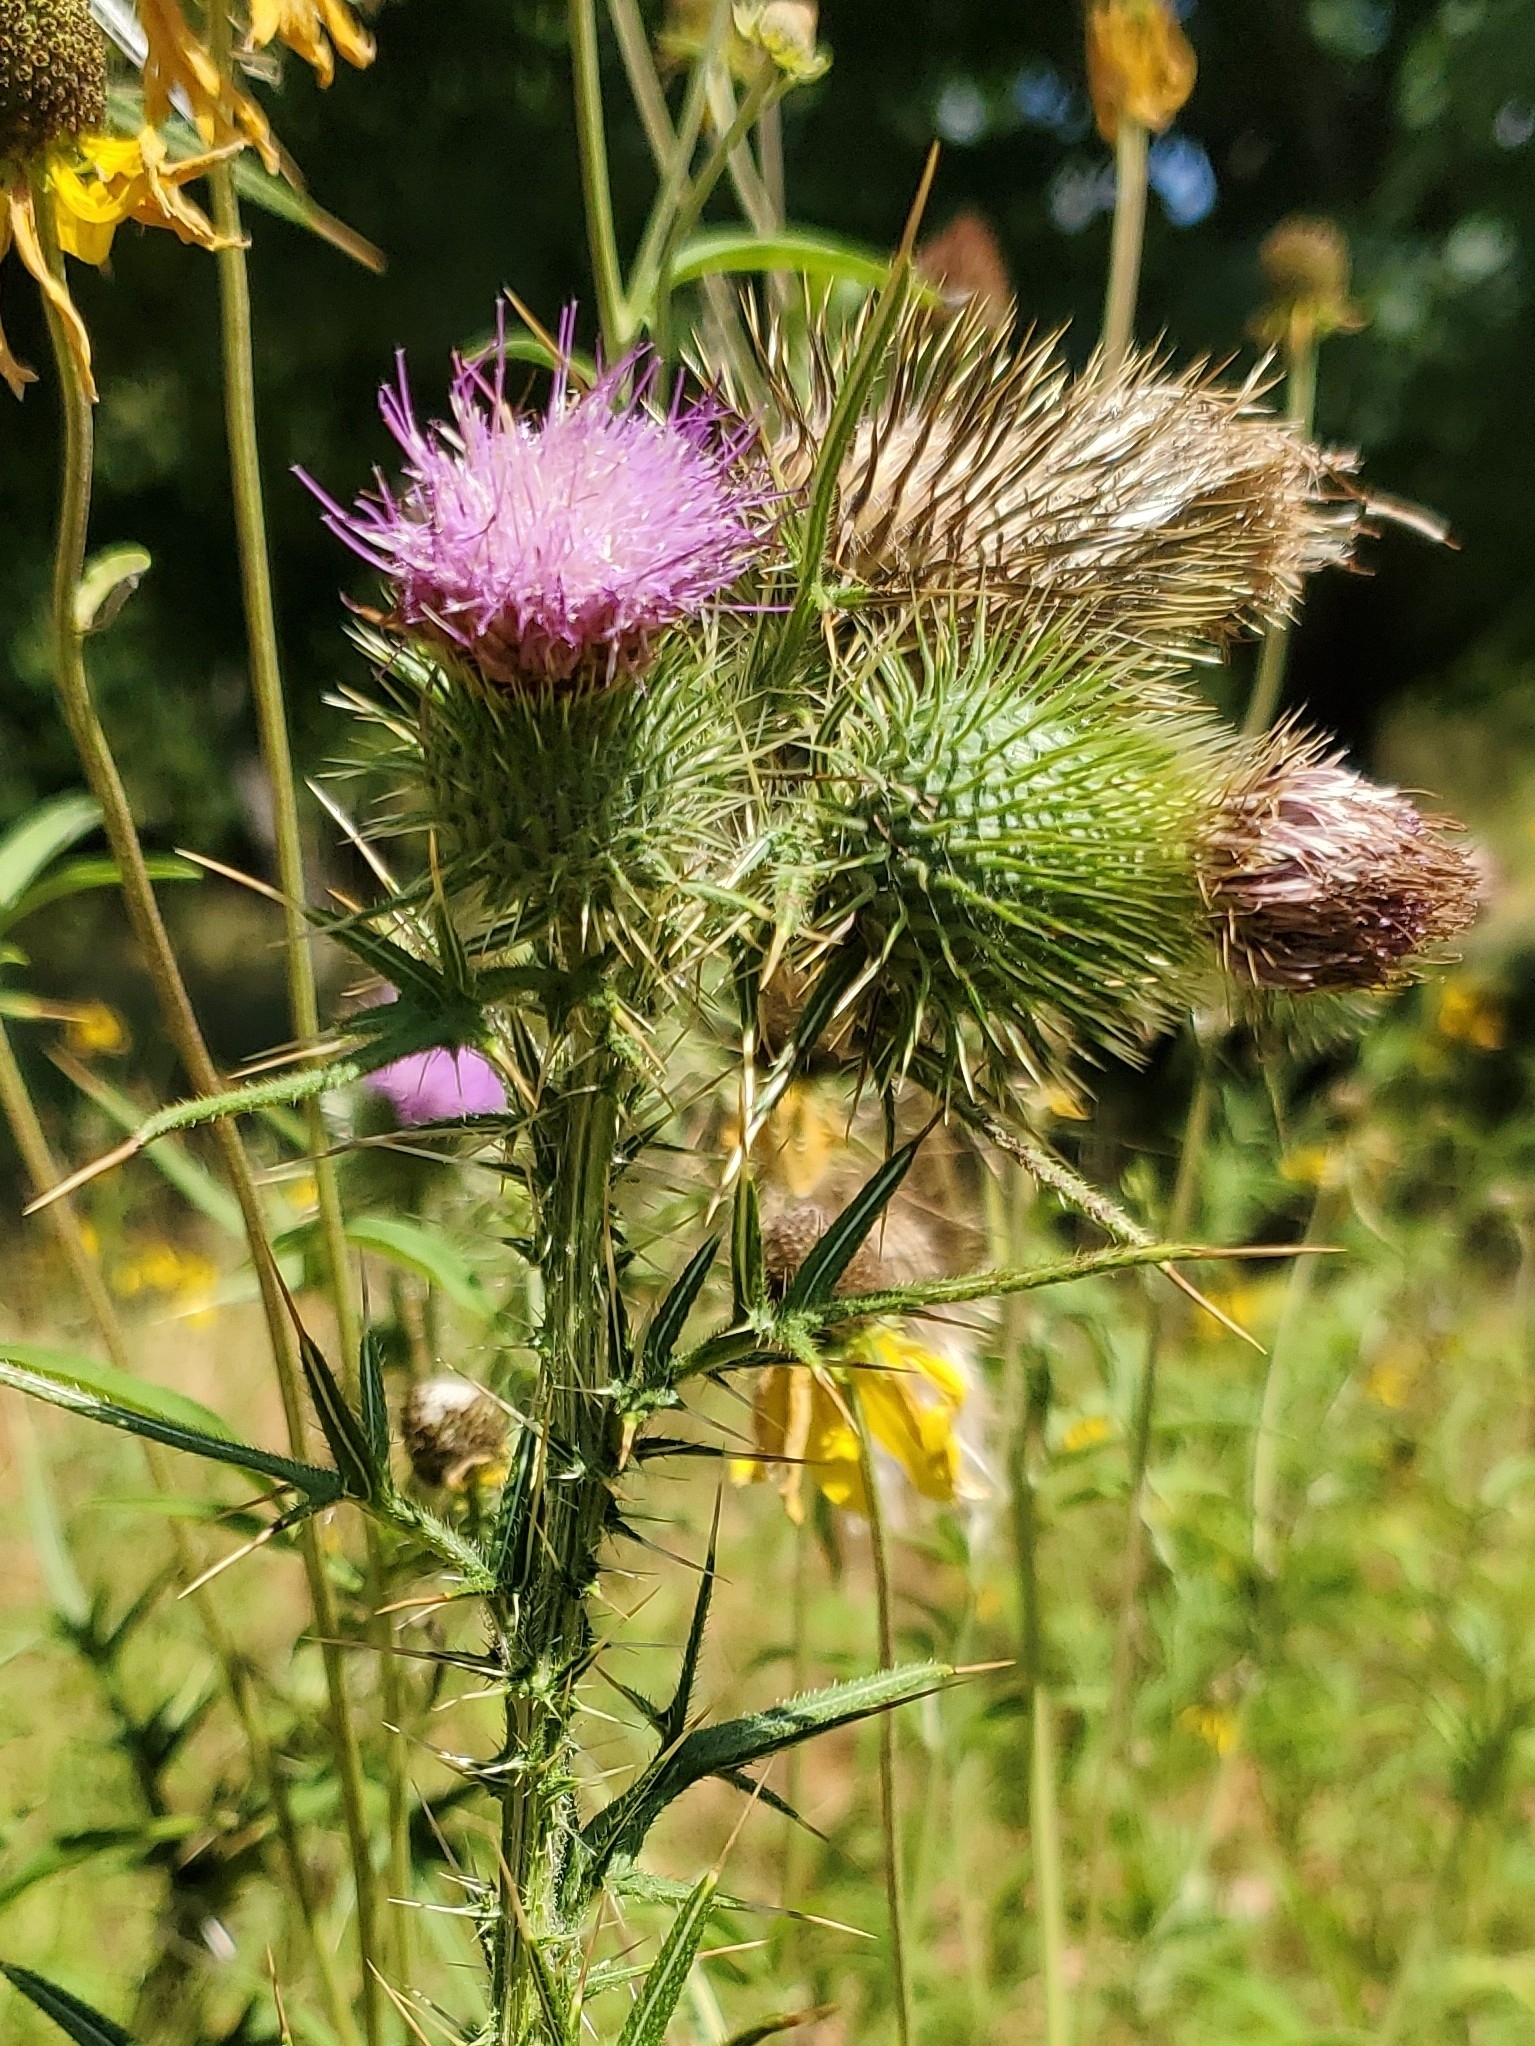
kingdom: Plantae
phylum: Tracheophyta
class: Magnoliopsida
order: Asterales
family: Asteraceae
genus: Cirsium
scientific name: Cirsium vulgare
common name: Bull thistle
